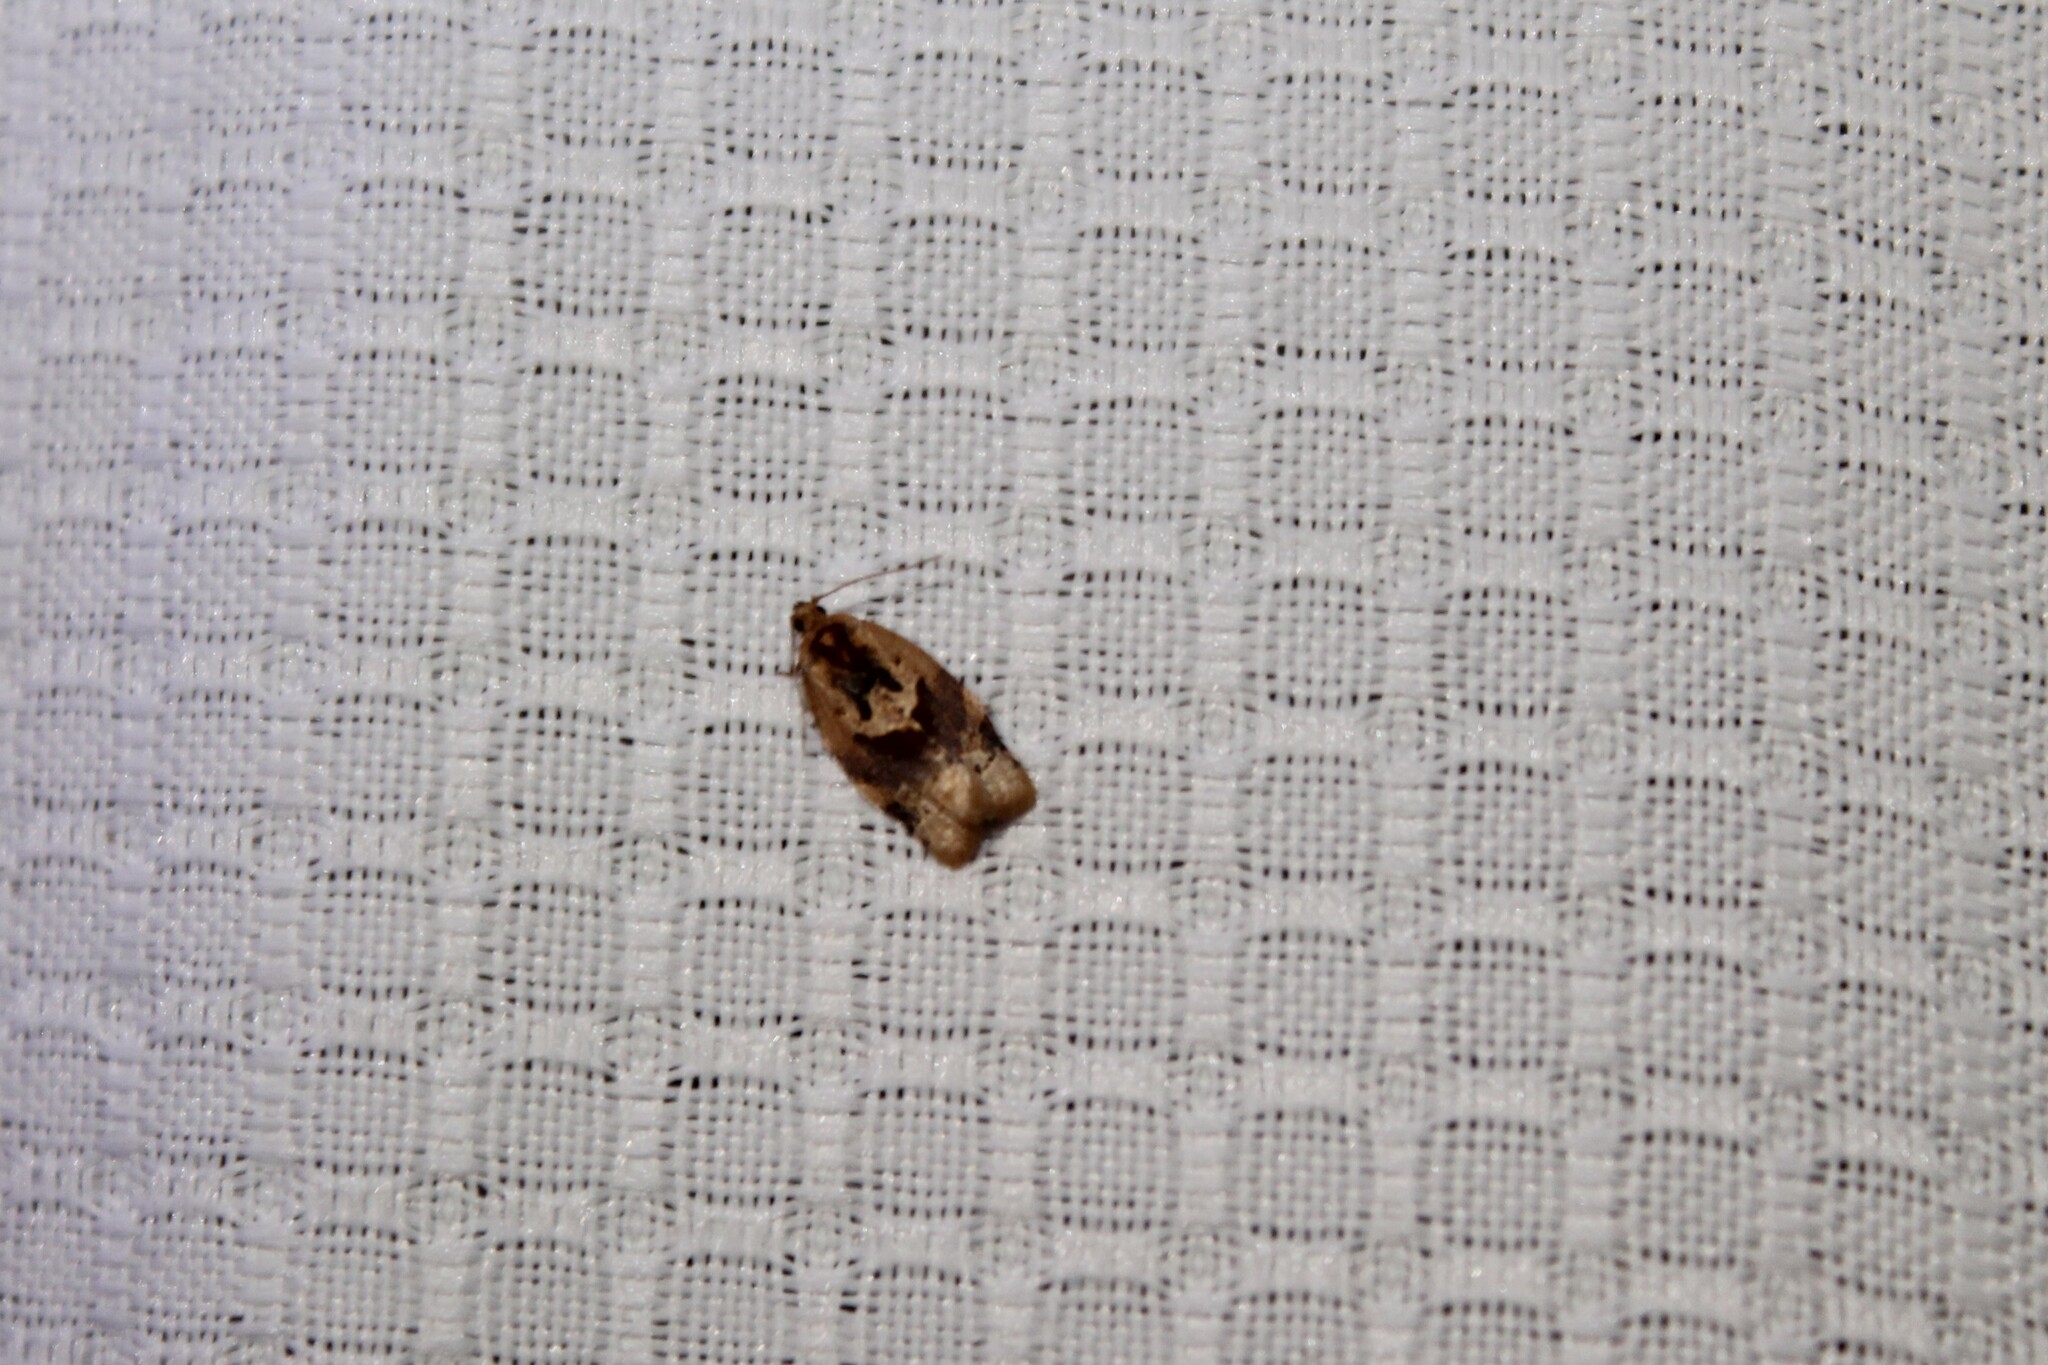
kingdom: Animalia
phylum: Arthropoda
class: Insecta
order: Lepidoptera
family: Tortricidae
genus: Argyrotaenia
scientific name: Argyrotaenia velutinana
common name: Red-banded leafroller moth
